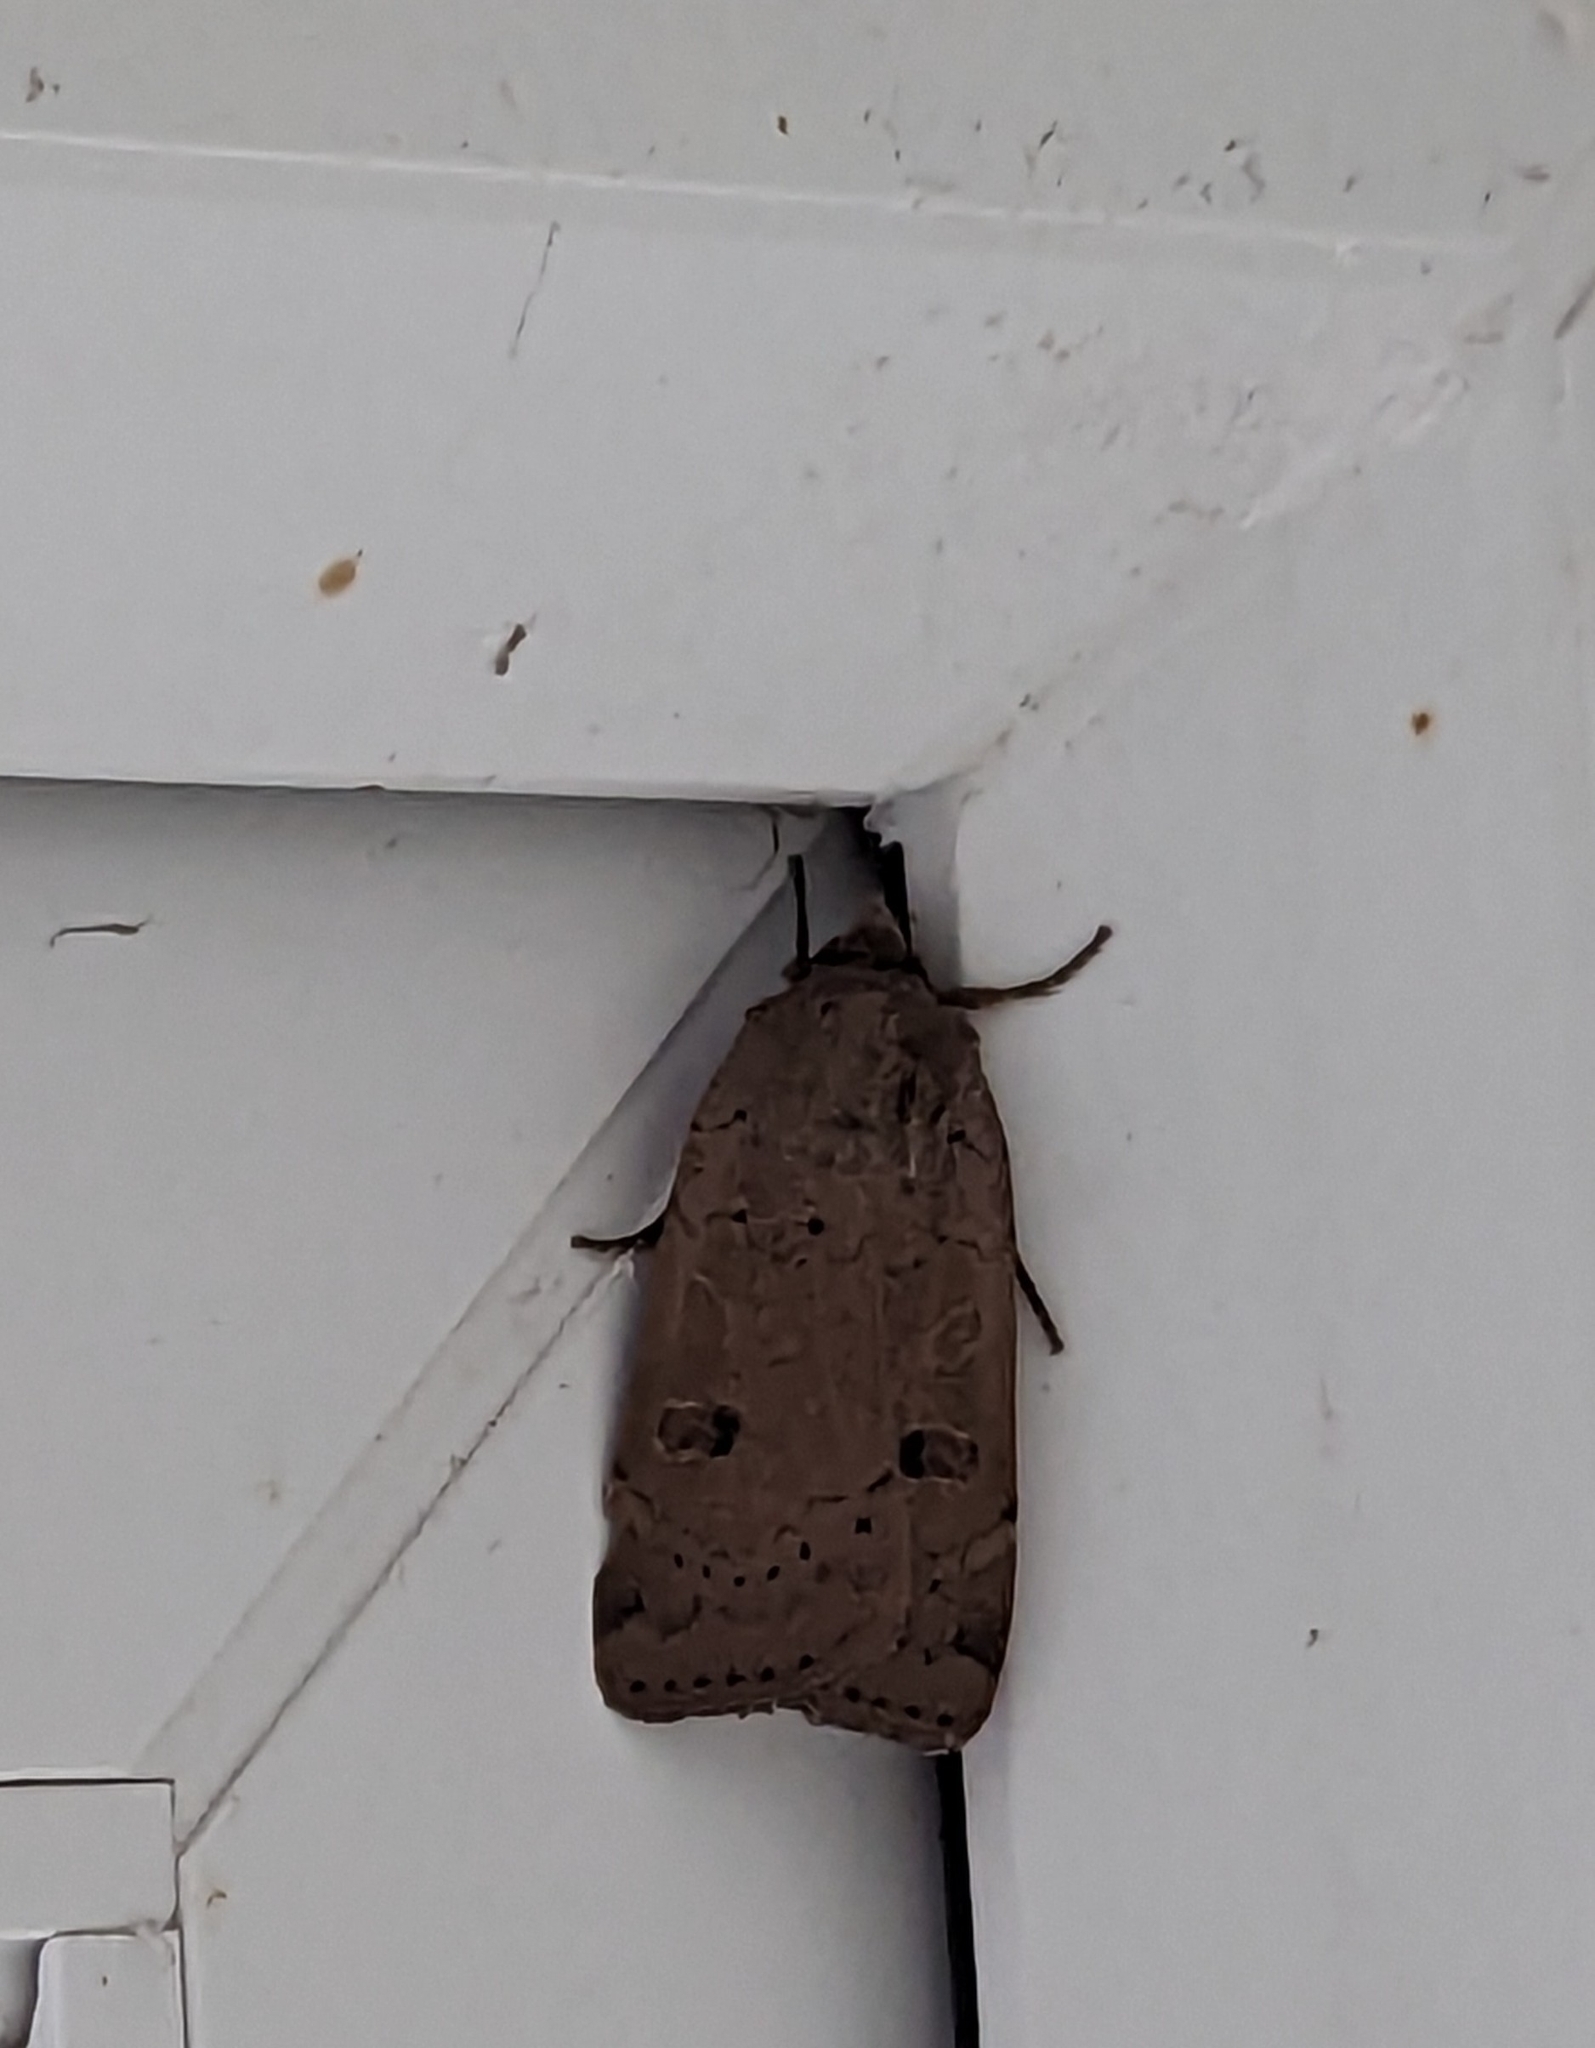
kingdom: Animalia
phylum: Arthropoda
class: Insecta
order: Lepidoptera
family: Noctuidae
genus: Noctua
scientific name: Noctua comes
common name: Lesser yellow underwing
